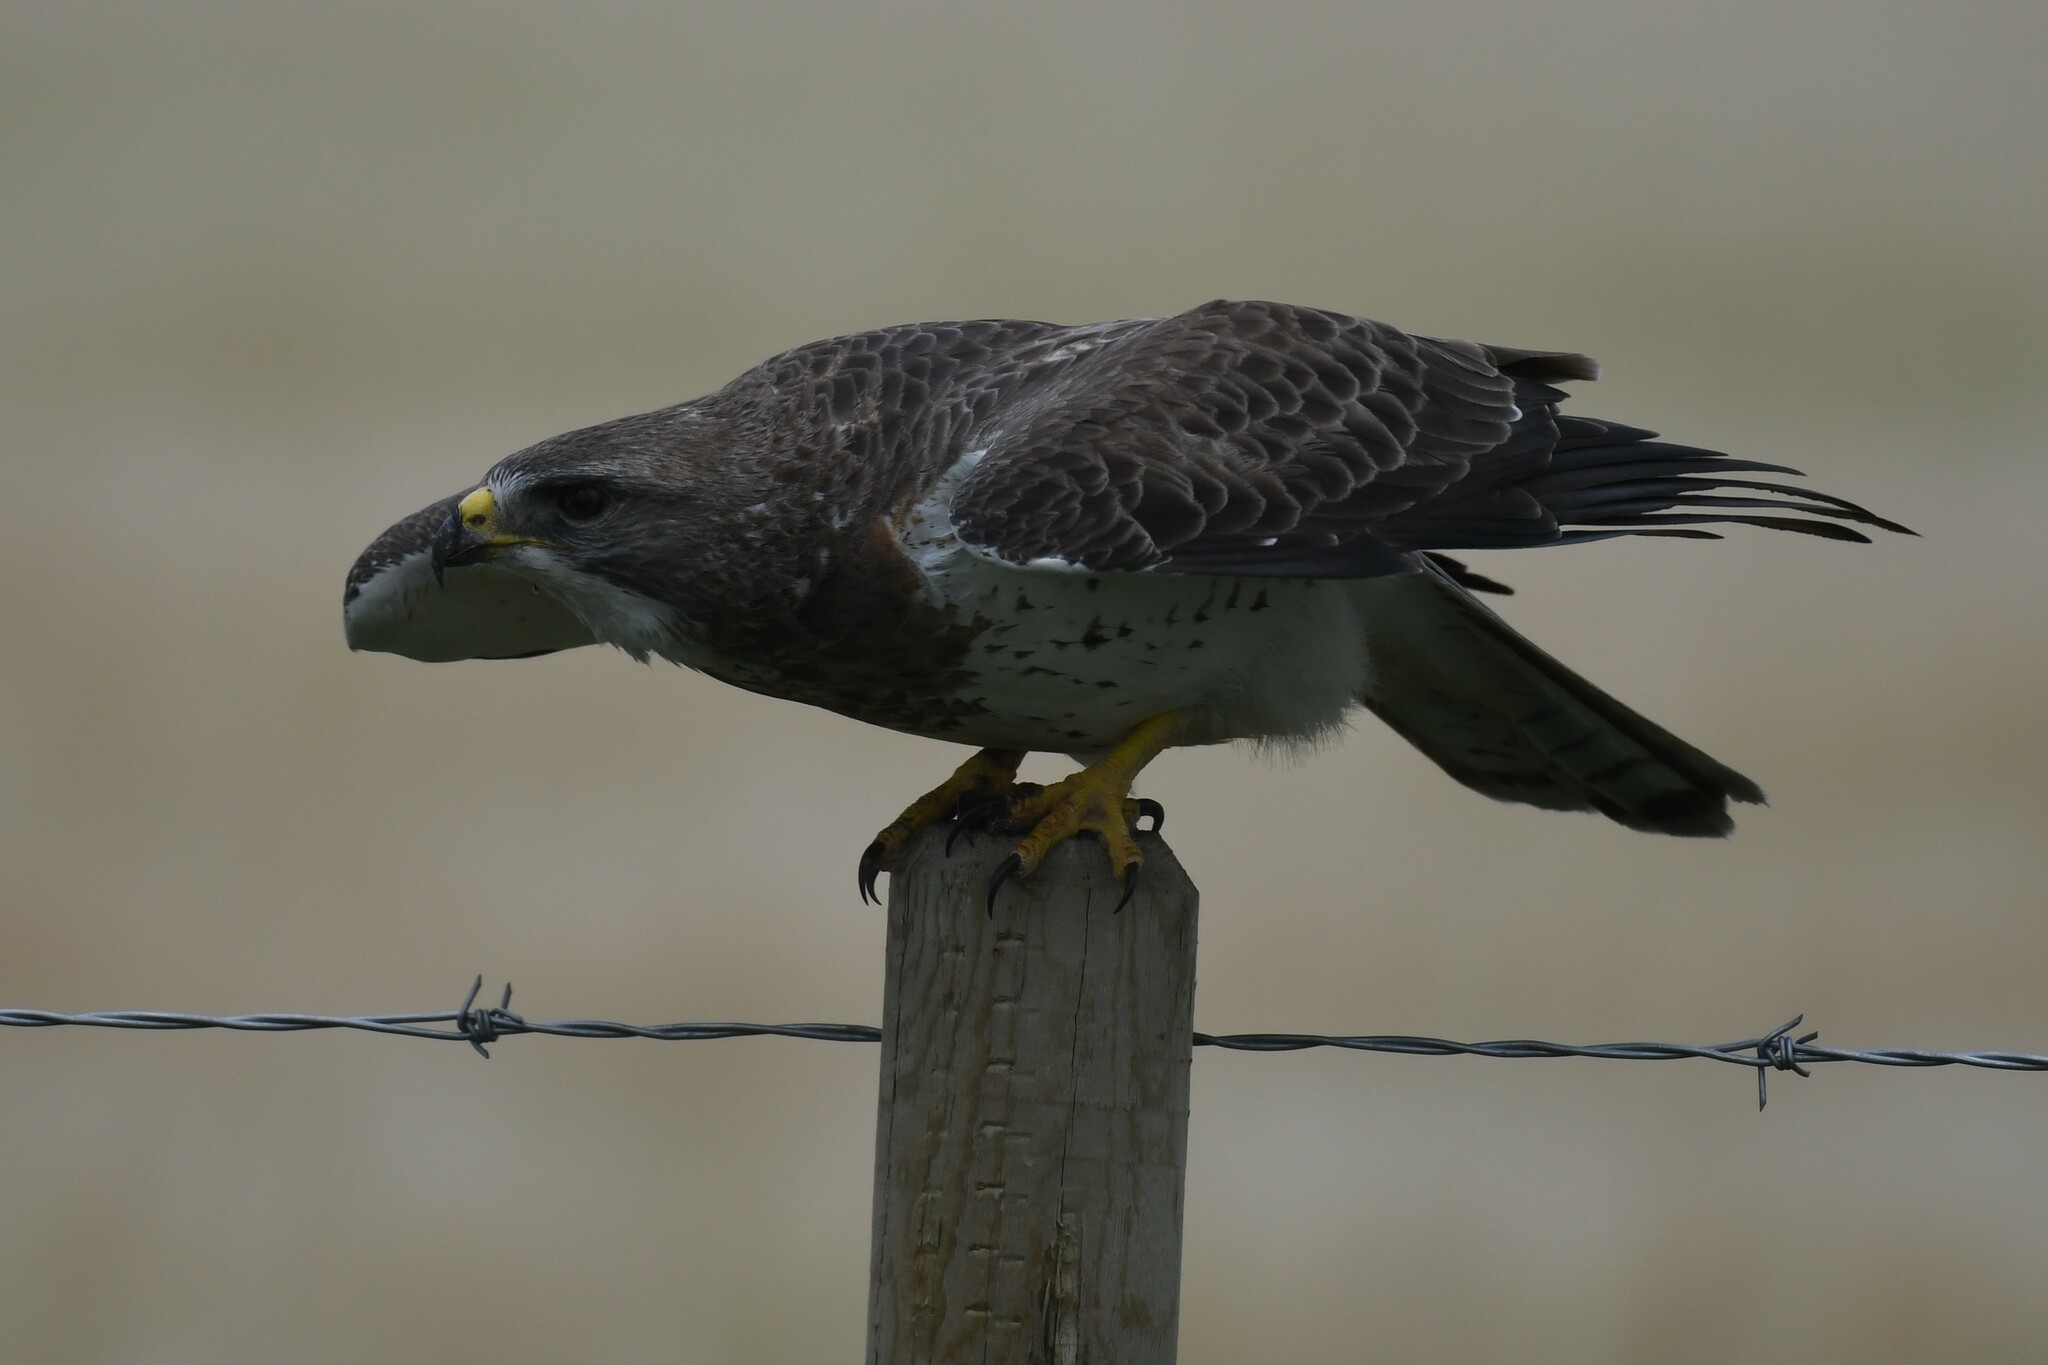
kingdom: Animalia
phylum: Chordata
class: Aves
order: Accipitriformes
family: Accipitridae
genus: Buteo
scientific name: Buteo swainsoni
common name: Swainson's hawk
